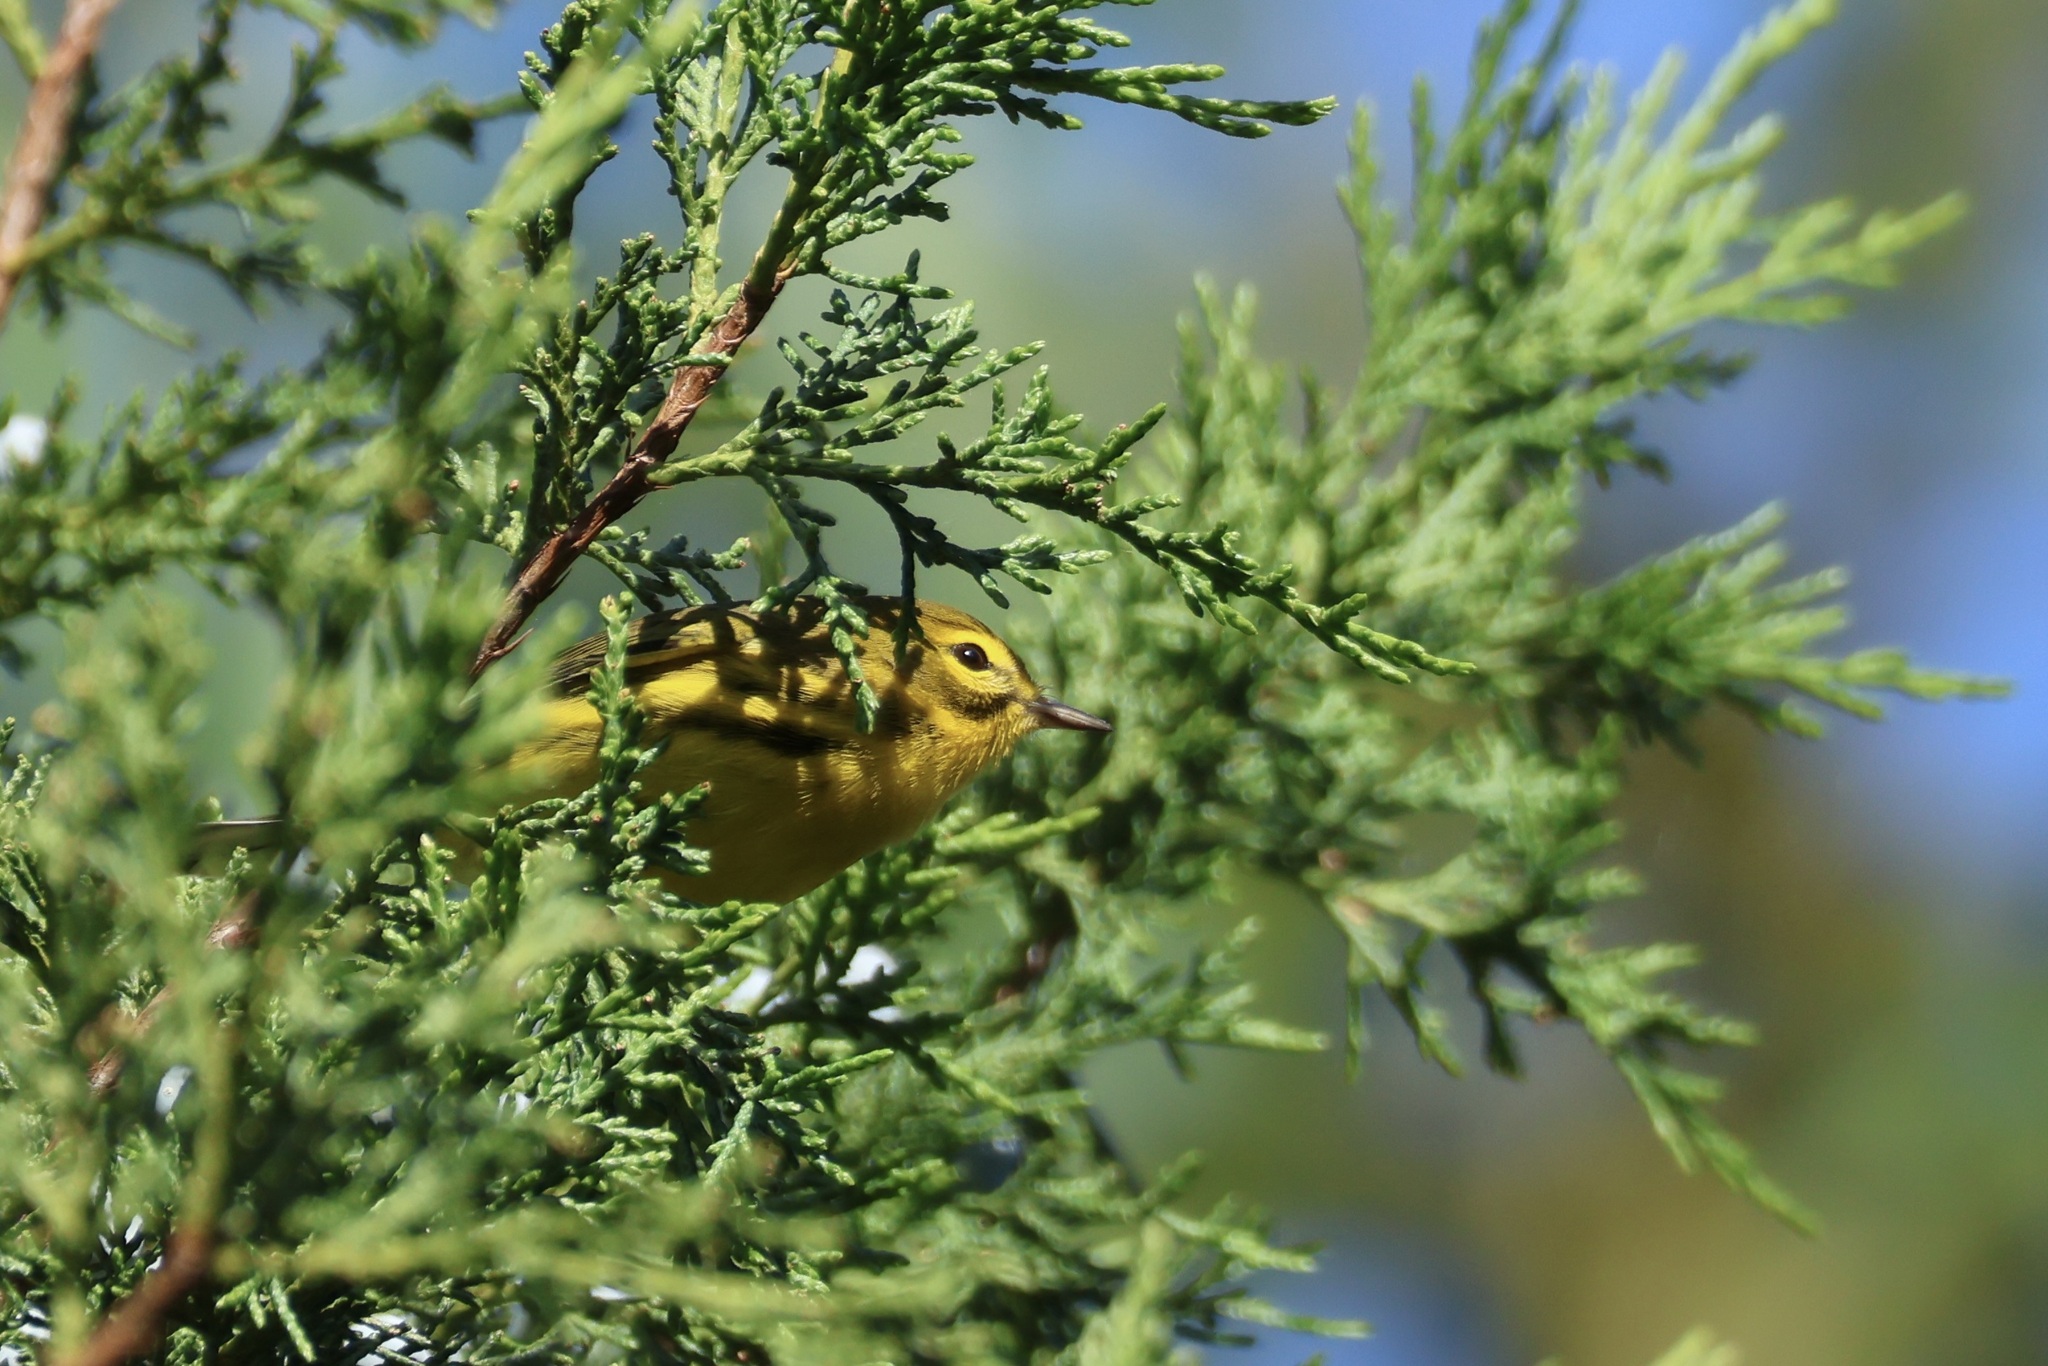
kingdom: Animalia
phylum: Chordata
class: Aves
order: Passeriformes
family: Parulidae
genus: Setophaga
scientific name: Setophaga discolor
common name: Prairie warbler
